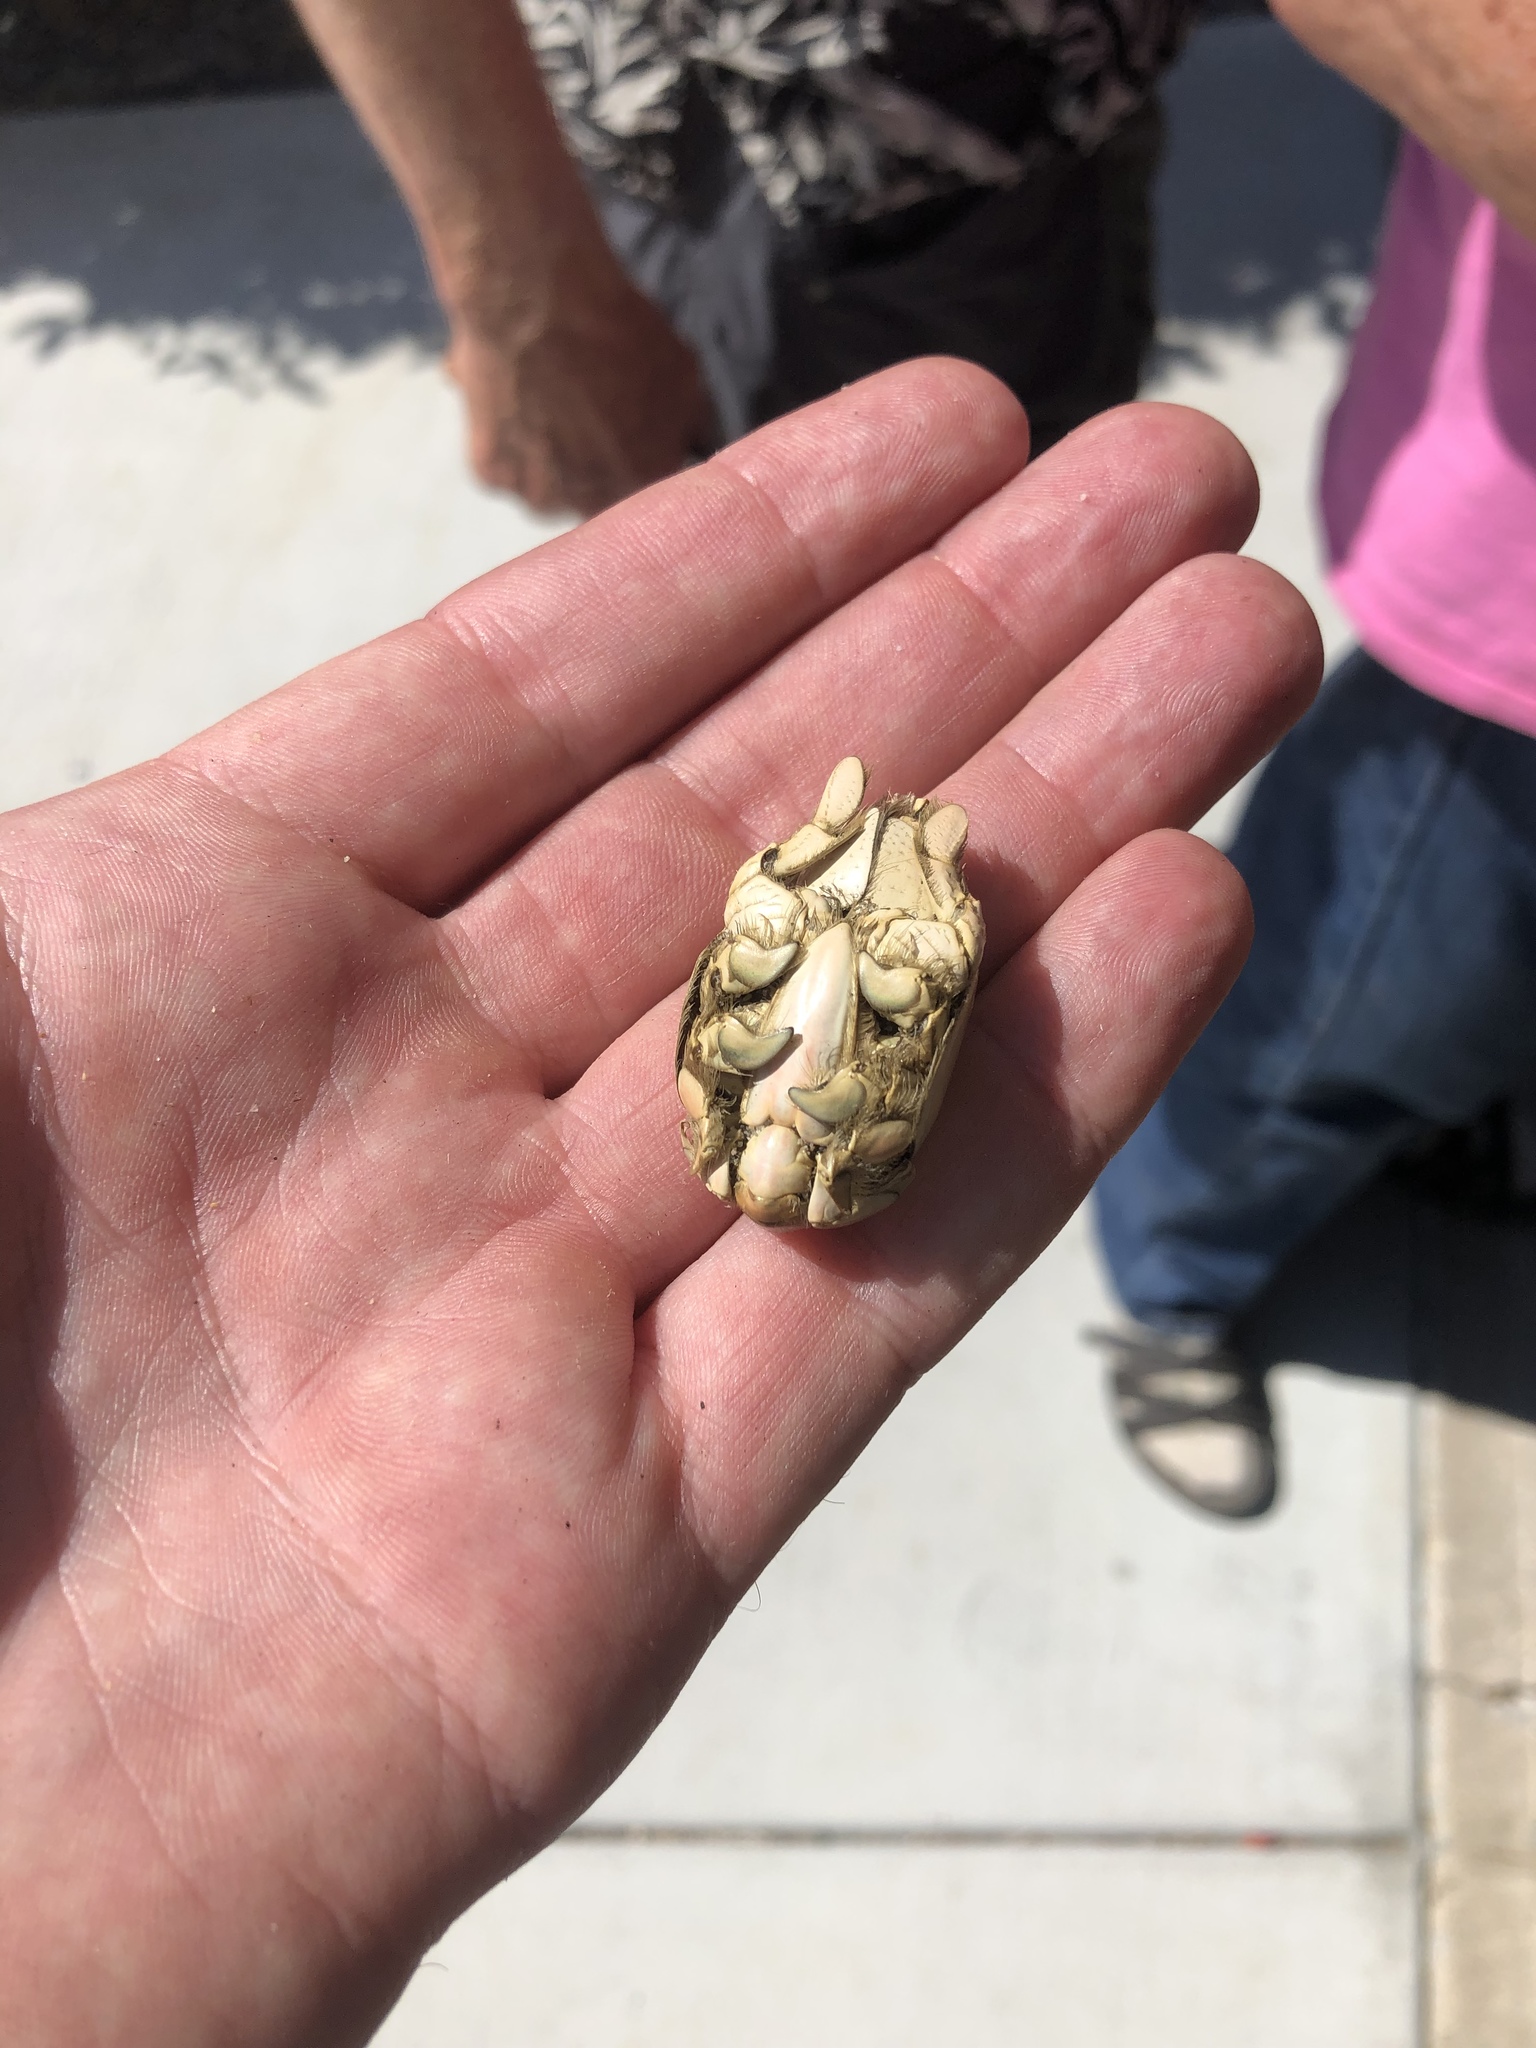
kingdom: Animalia
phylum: Arthropoda
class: Malacostraca
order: Decapoda
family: Hippidae
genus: Emerita
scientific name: Emerita analoga
